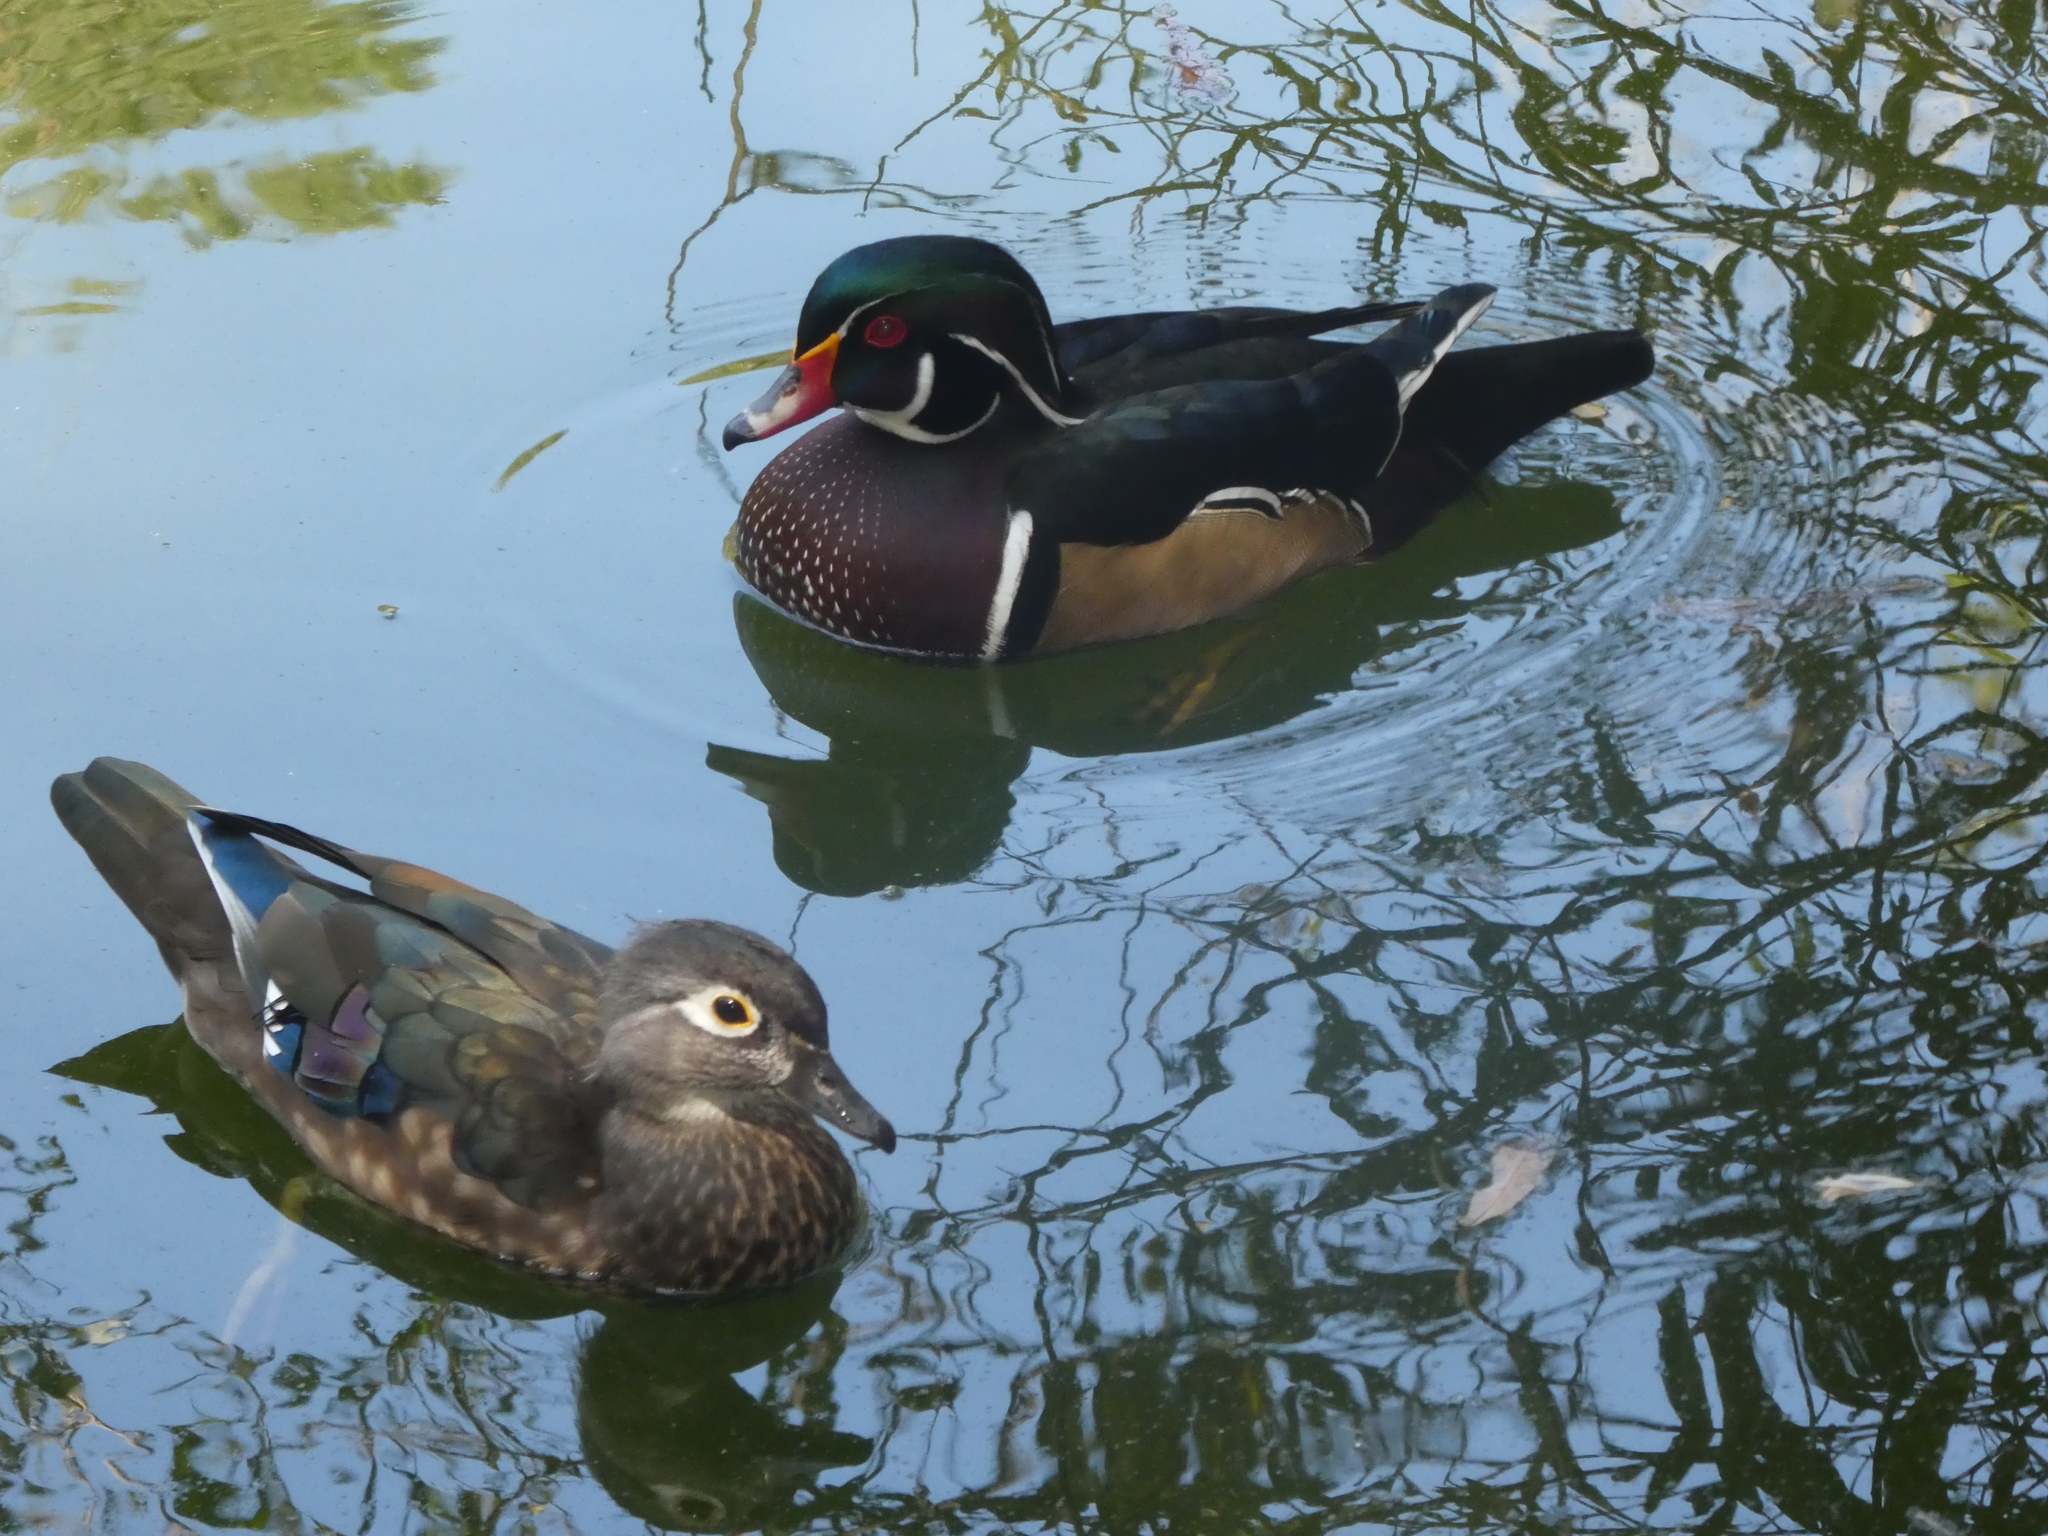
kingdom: Animalia
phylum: Chordata
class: Aves
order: Anseriformes
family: Anatidae
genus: Aix
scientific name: Aix sponsa
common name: Wood duck
